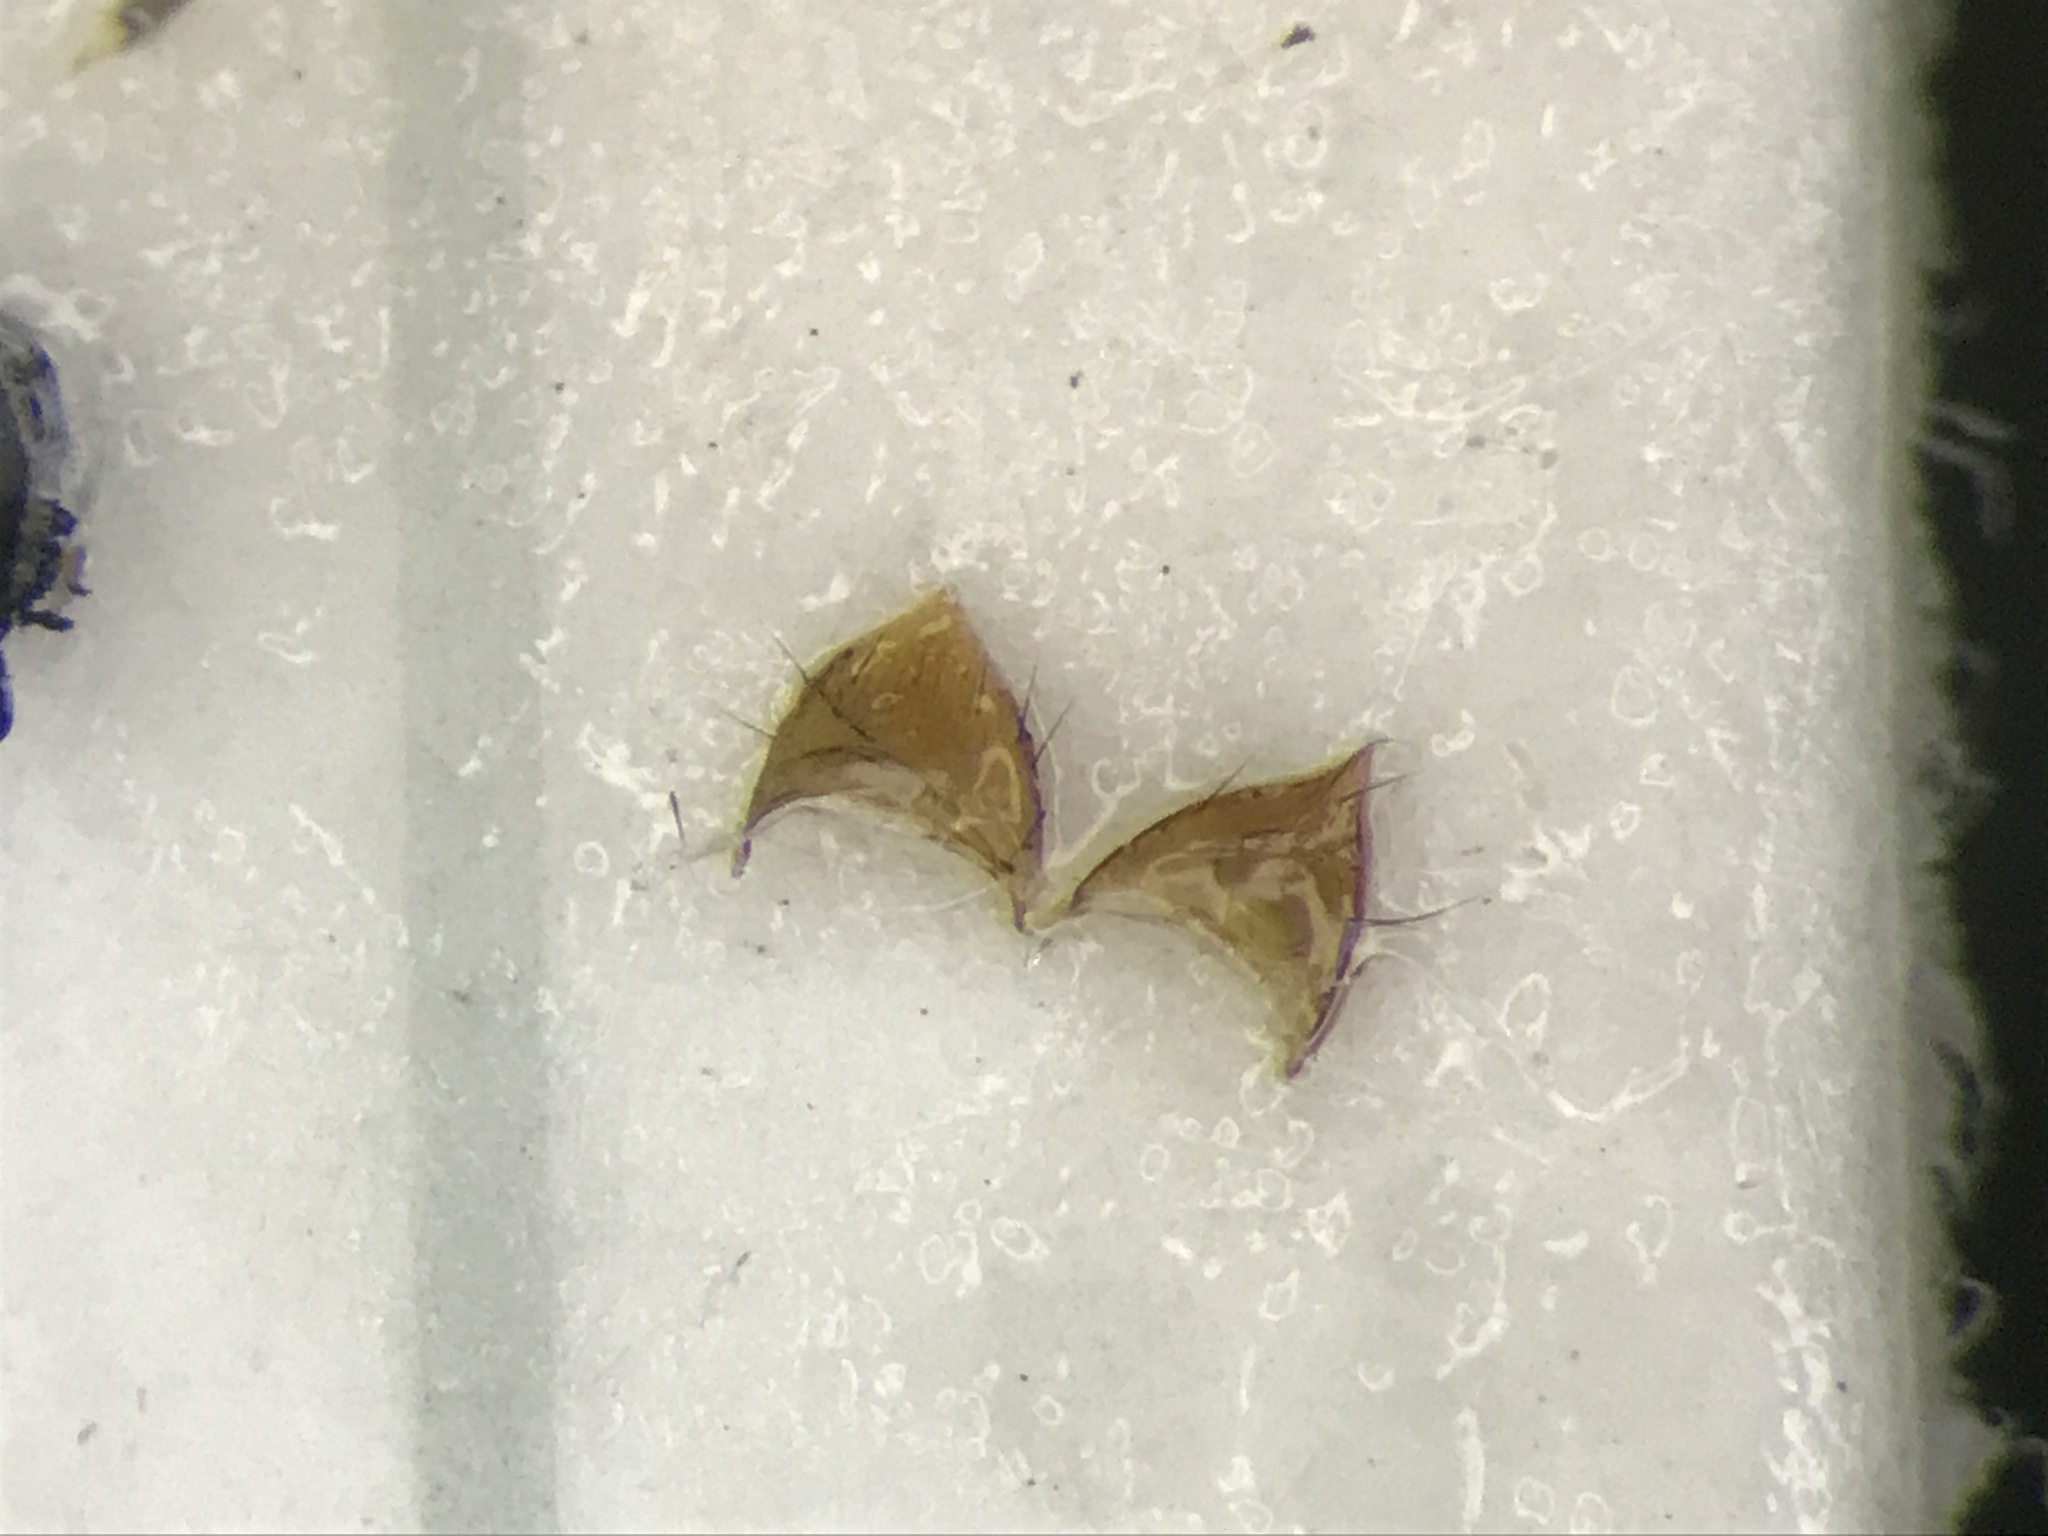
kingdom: Animalia
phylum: Arthropoda
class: Insecta
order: Coleoptera
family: Staphylinidae
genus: Habrocerus
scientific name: Habrocerus capillaricornis
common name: Staph beetle
